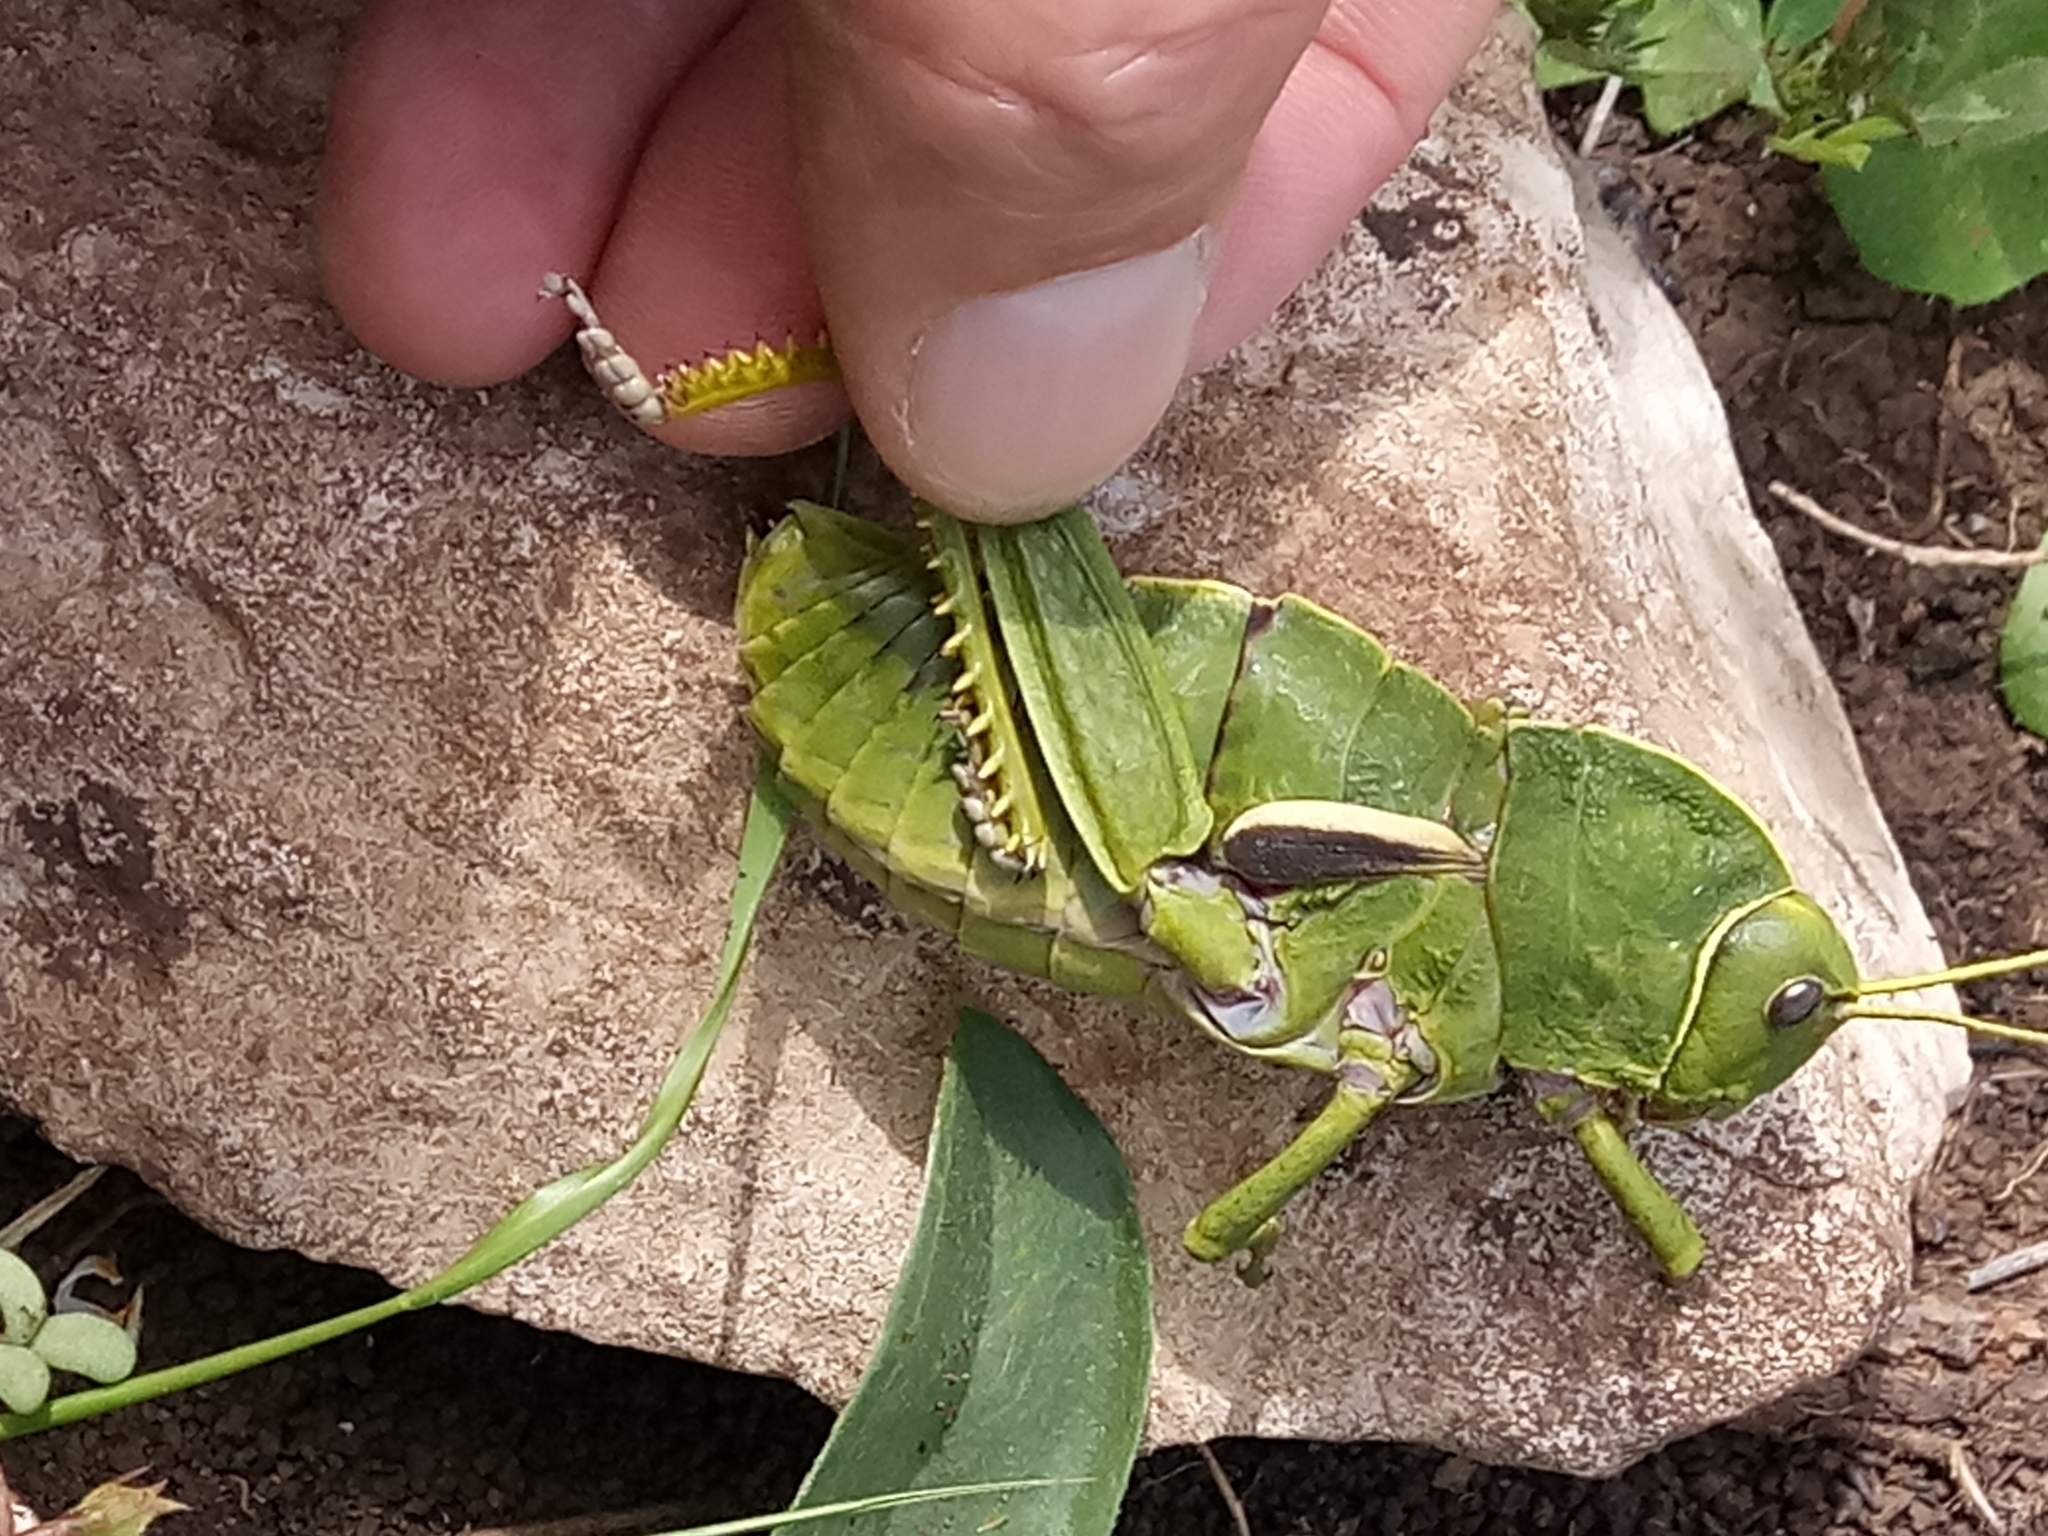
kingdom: Animalia
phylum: Arthropoda
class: Insecta
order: Orthoptera
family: Pamphagidae
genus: Pamphagus
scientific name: Pamphagus milevitanus
